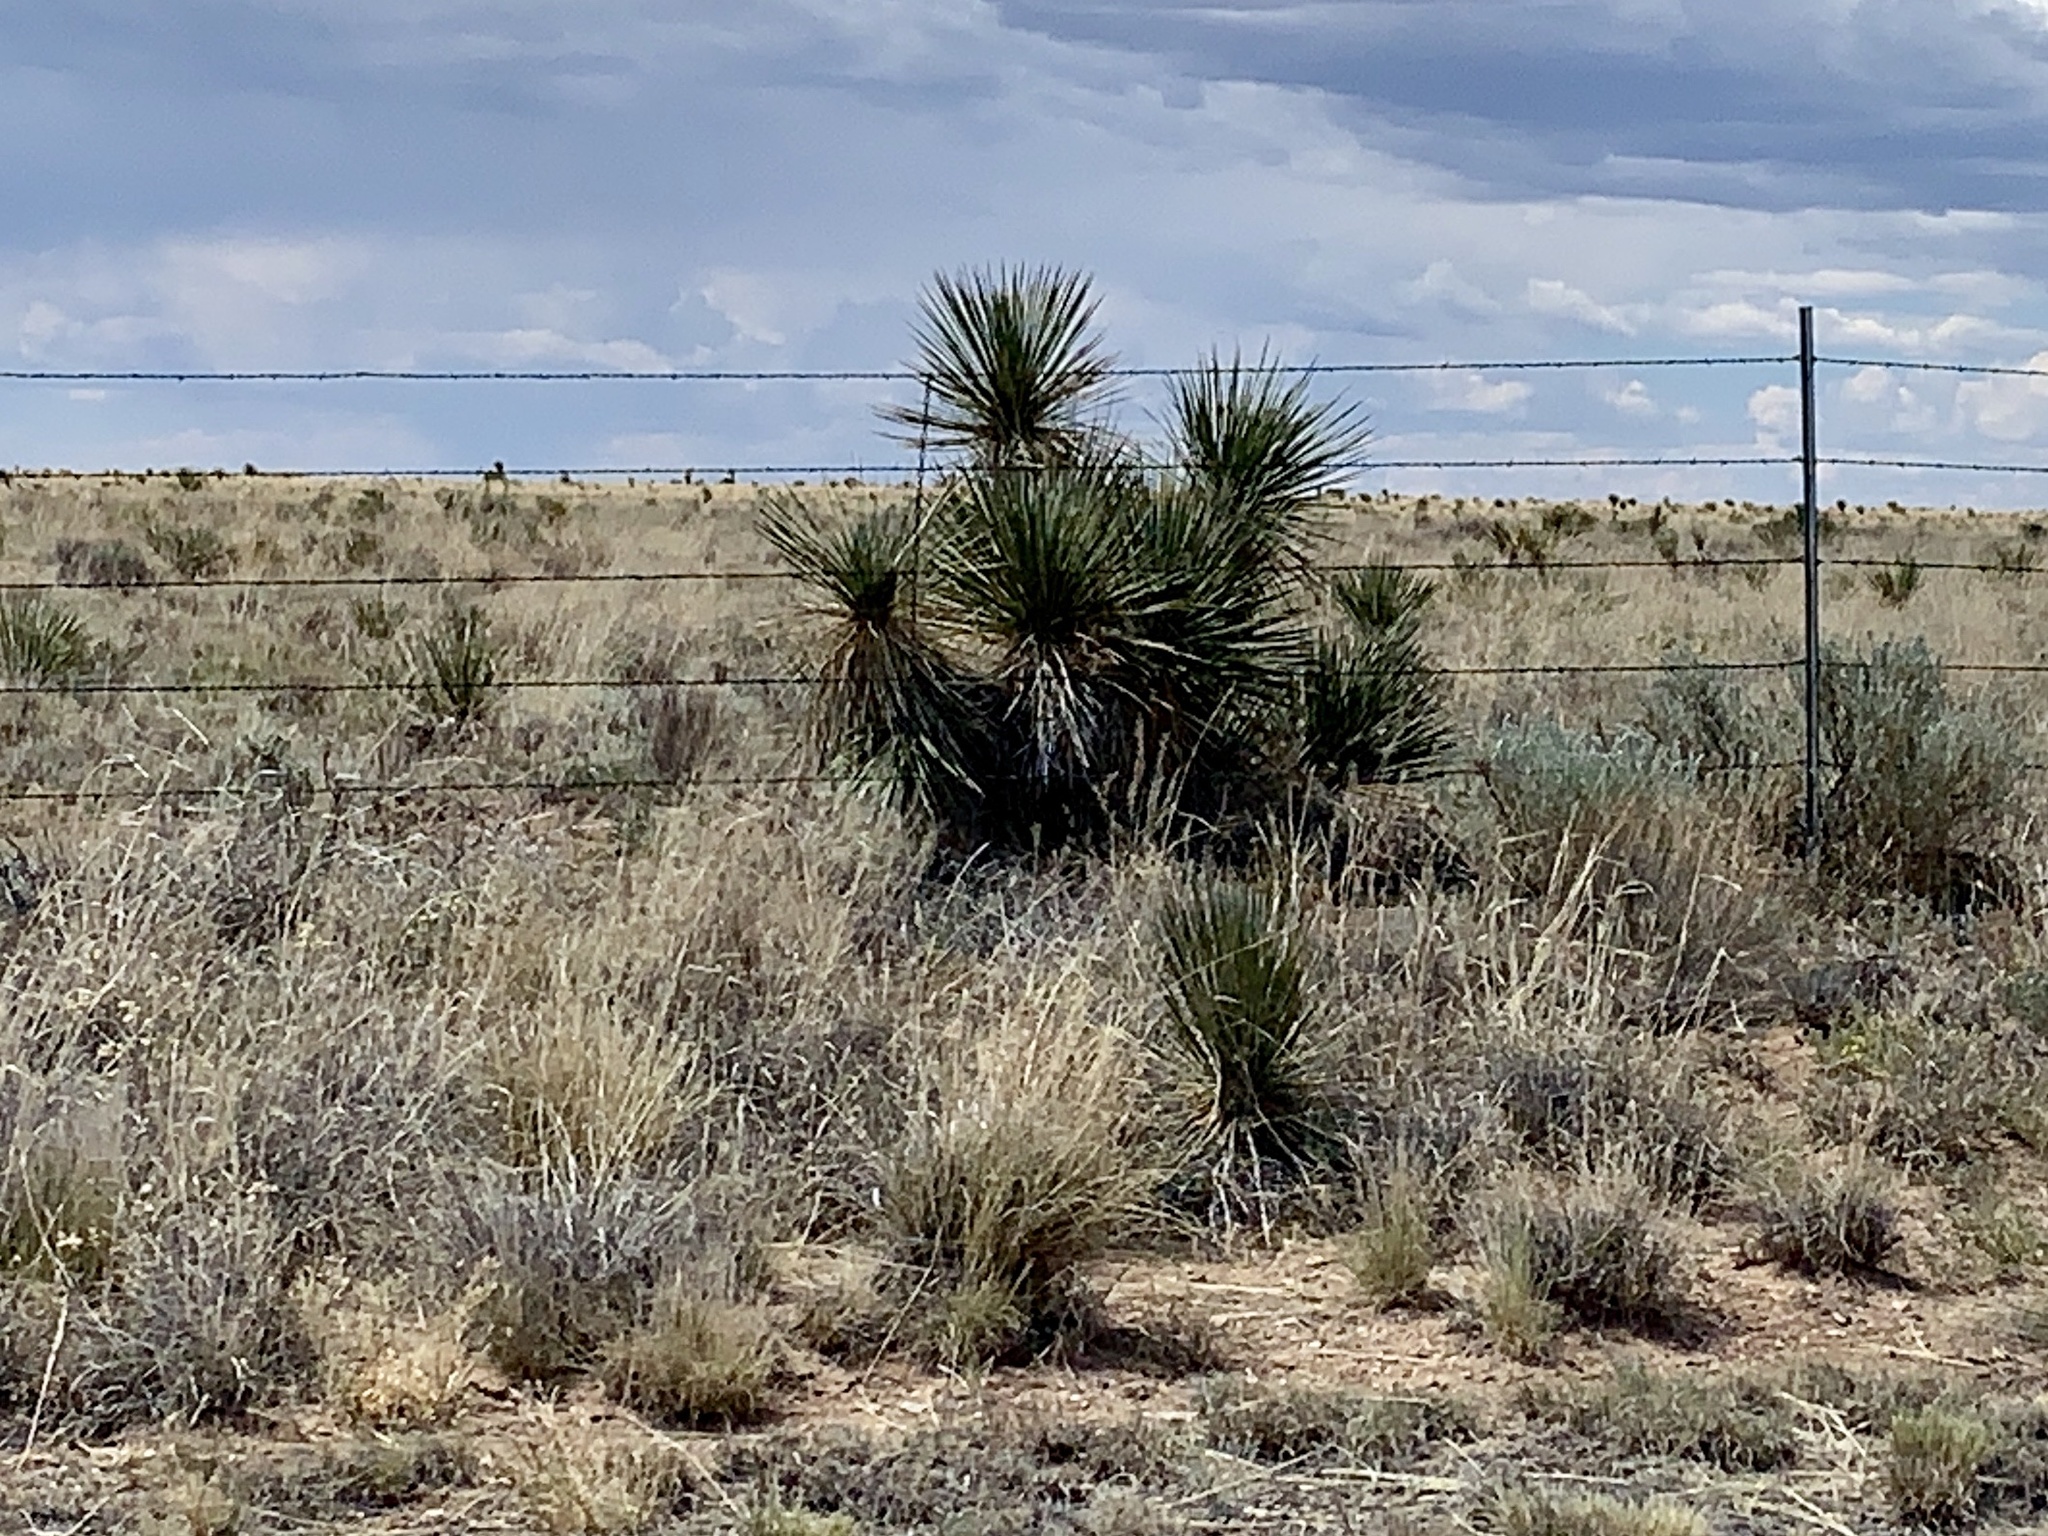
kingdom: Plantae
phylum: Tracheophyta
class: Liliopsida
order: Asparagales
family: Asparagaceae
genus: Yucca
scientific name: Yucca elata
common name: Palmella
